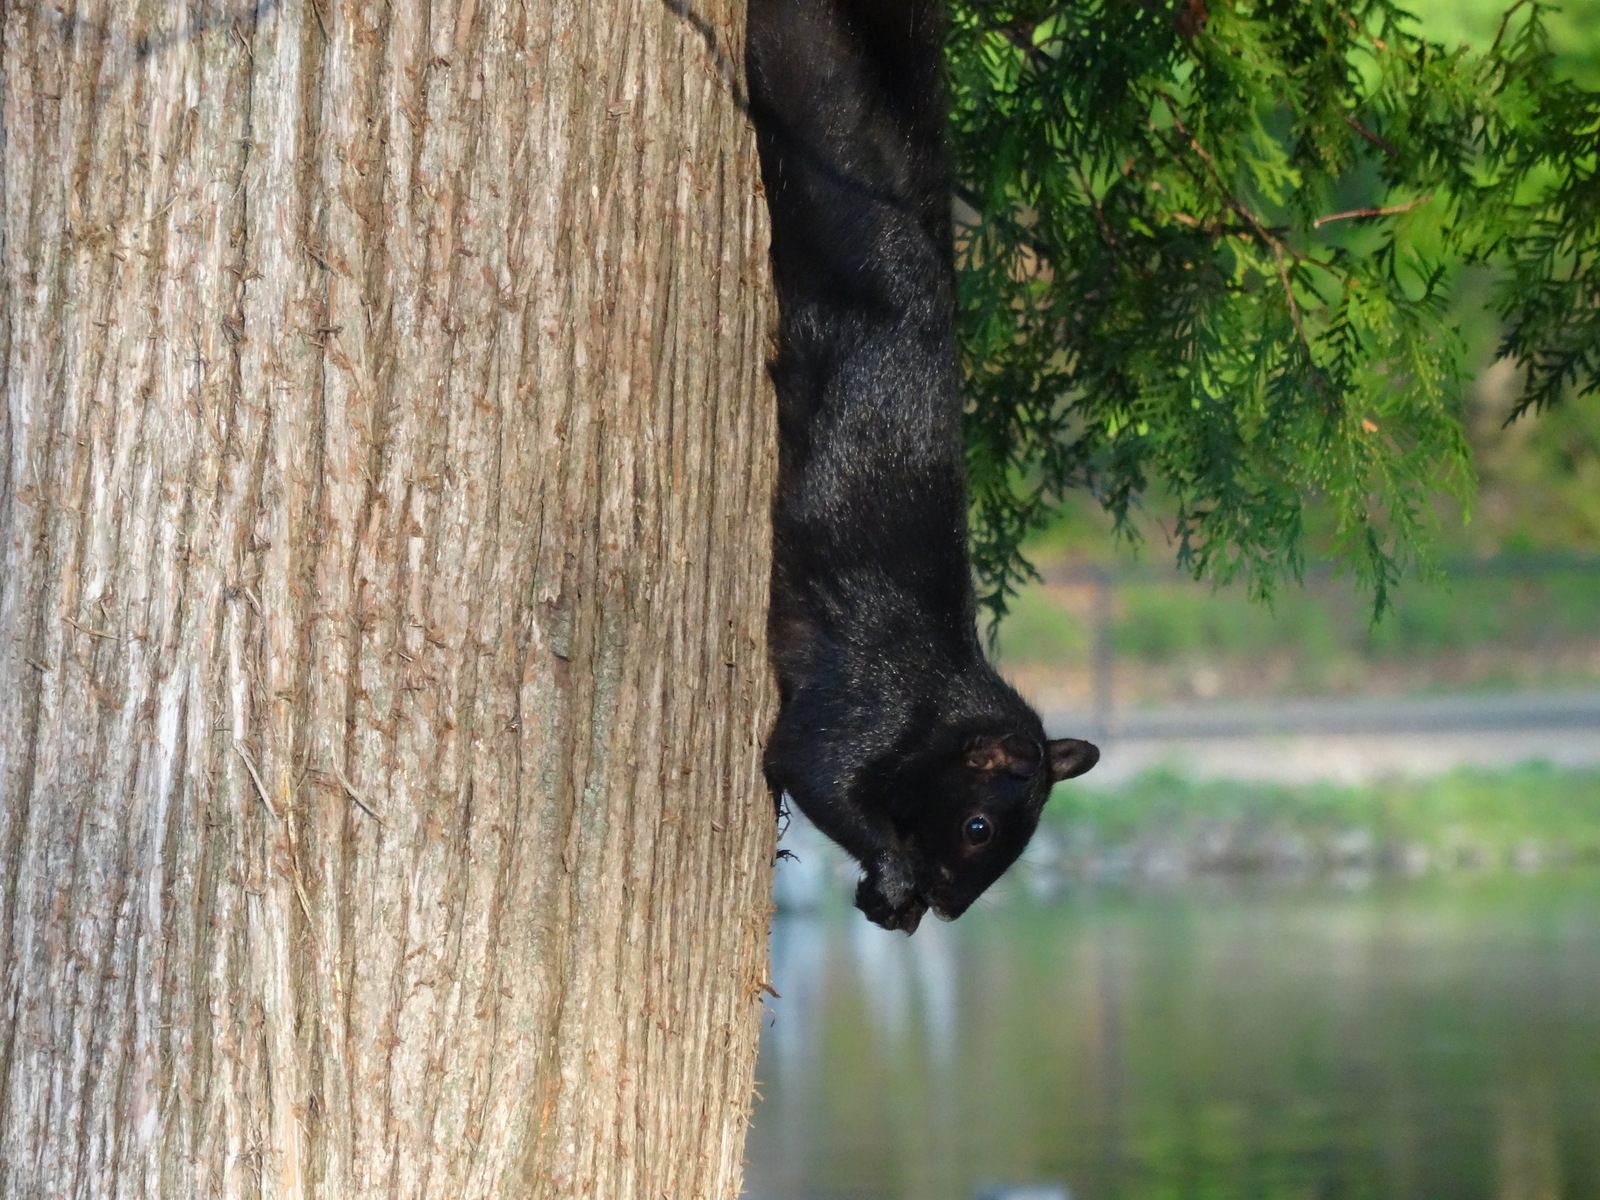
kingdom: Animalia
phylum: Chordata
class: Mammalia
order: Rodentia
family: Sciuridae
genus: Sciurus
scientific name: Sciurus carolinensis
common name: Eastern gray squirrel
